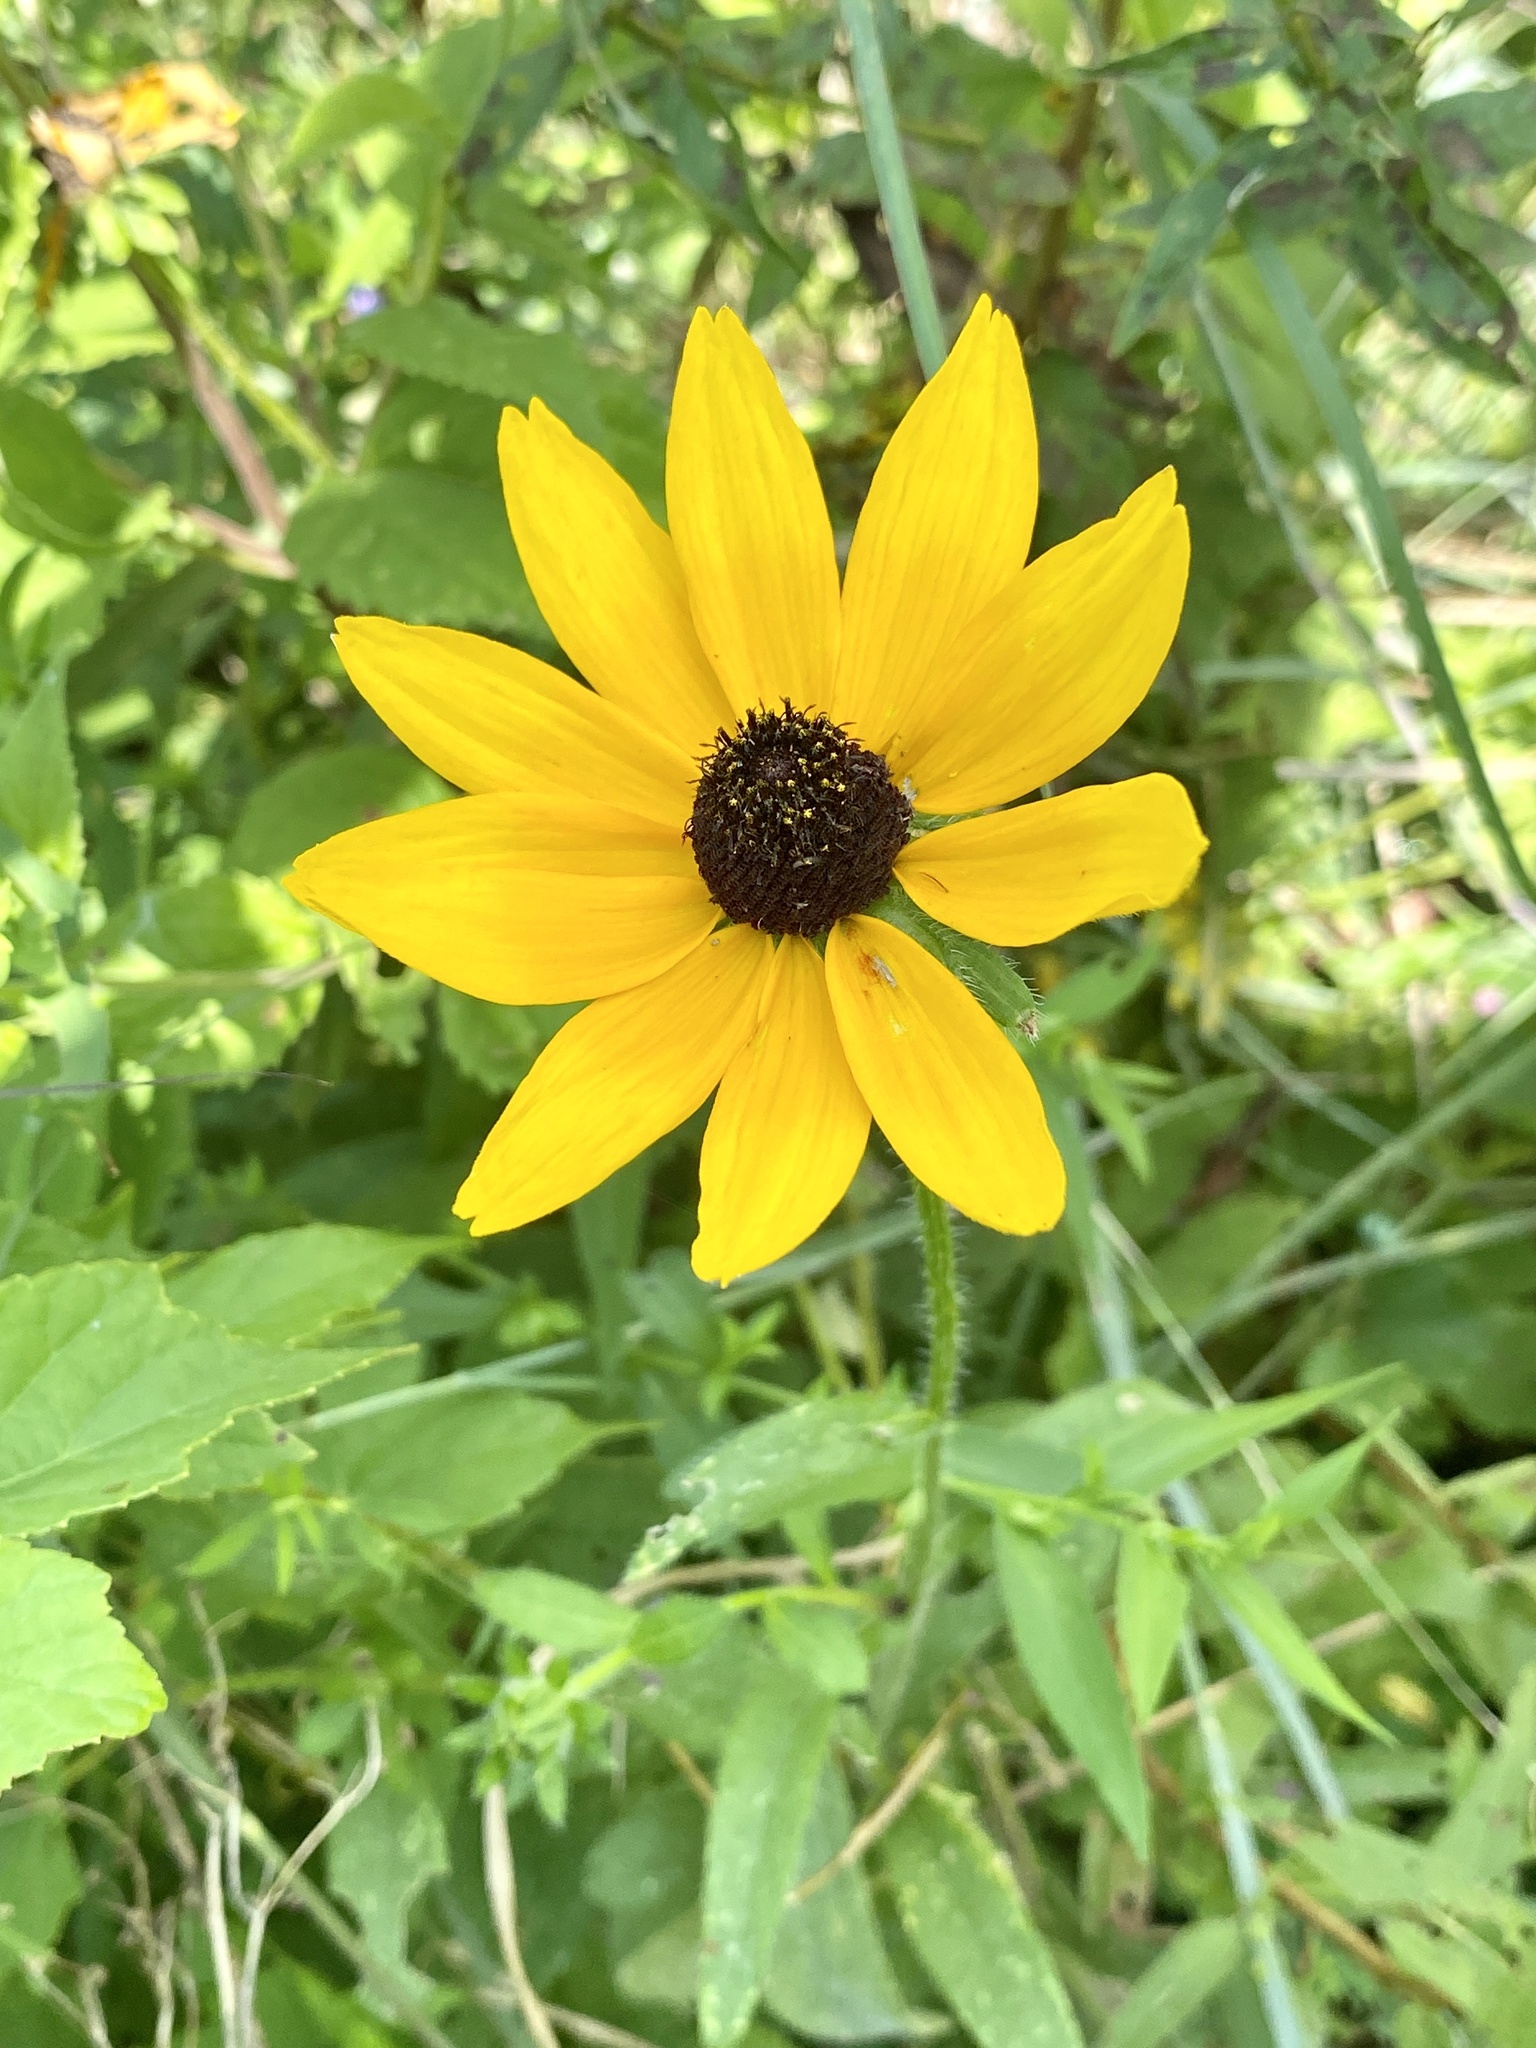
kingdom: Plantae
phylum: Tracheophyta
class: Magnoliopsida
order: Asterales
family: Asteraceae
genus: Rudbeckia
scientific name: Rudbeckia hirta
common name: Black-eyed-susan
